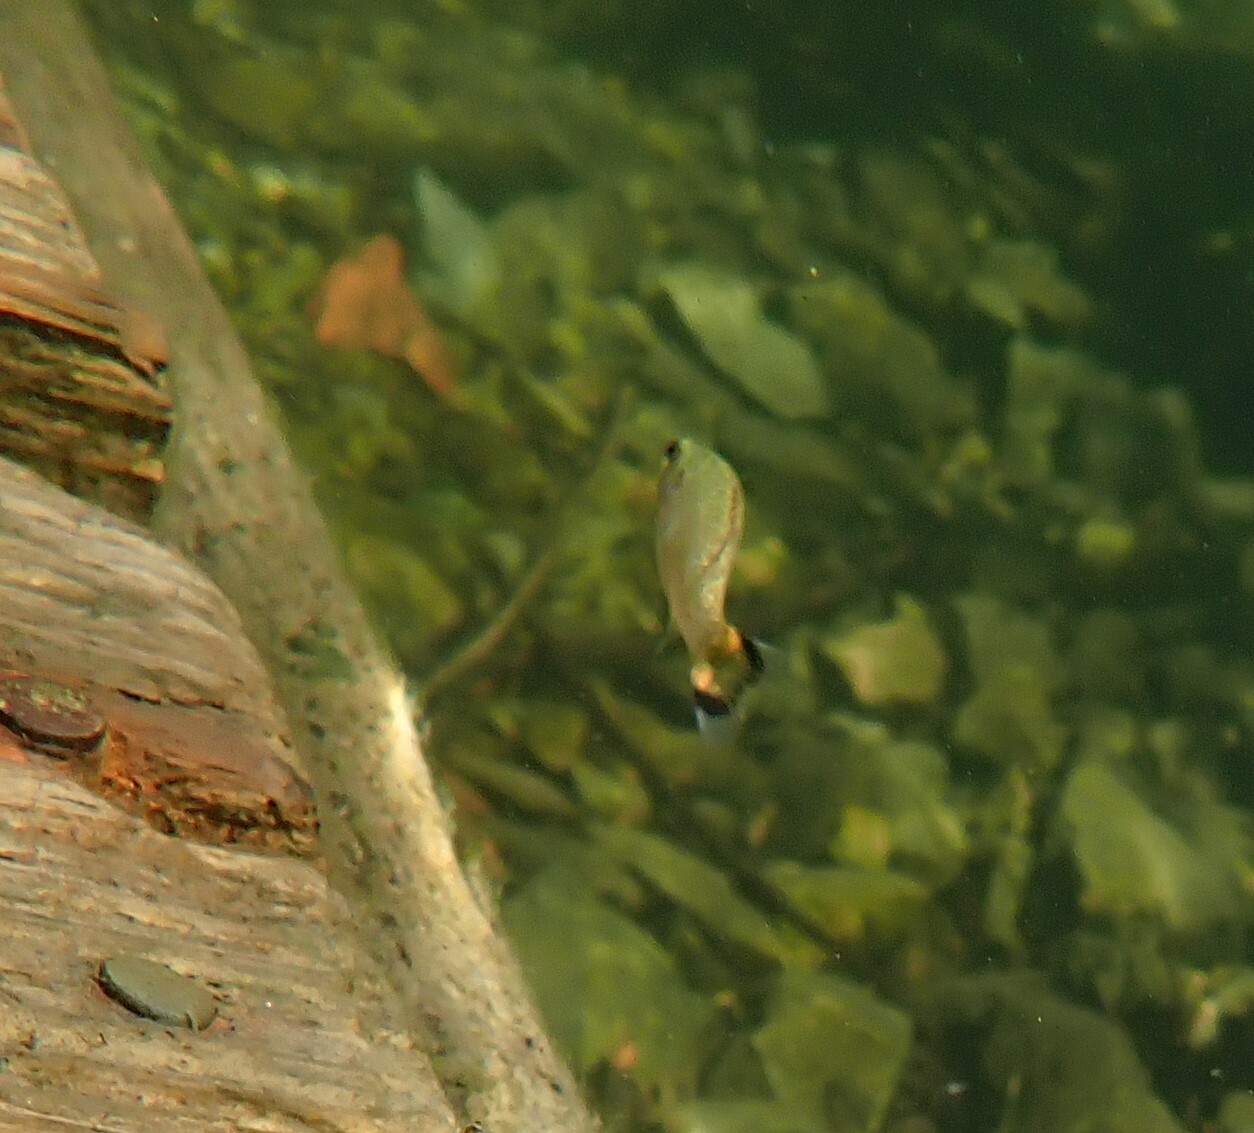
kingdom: Animalia
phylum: Chordata
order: Perciformes
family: Centrarchidae
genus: Micropterus
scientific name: Micropterus dolomieu
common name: Smallmouth bass
